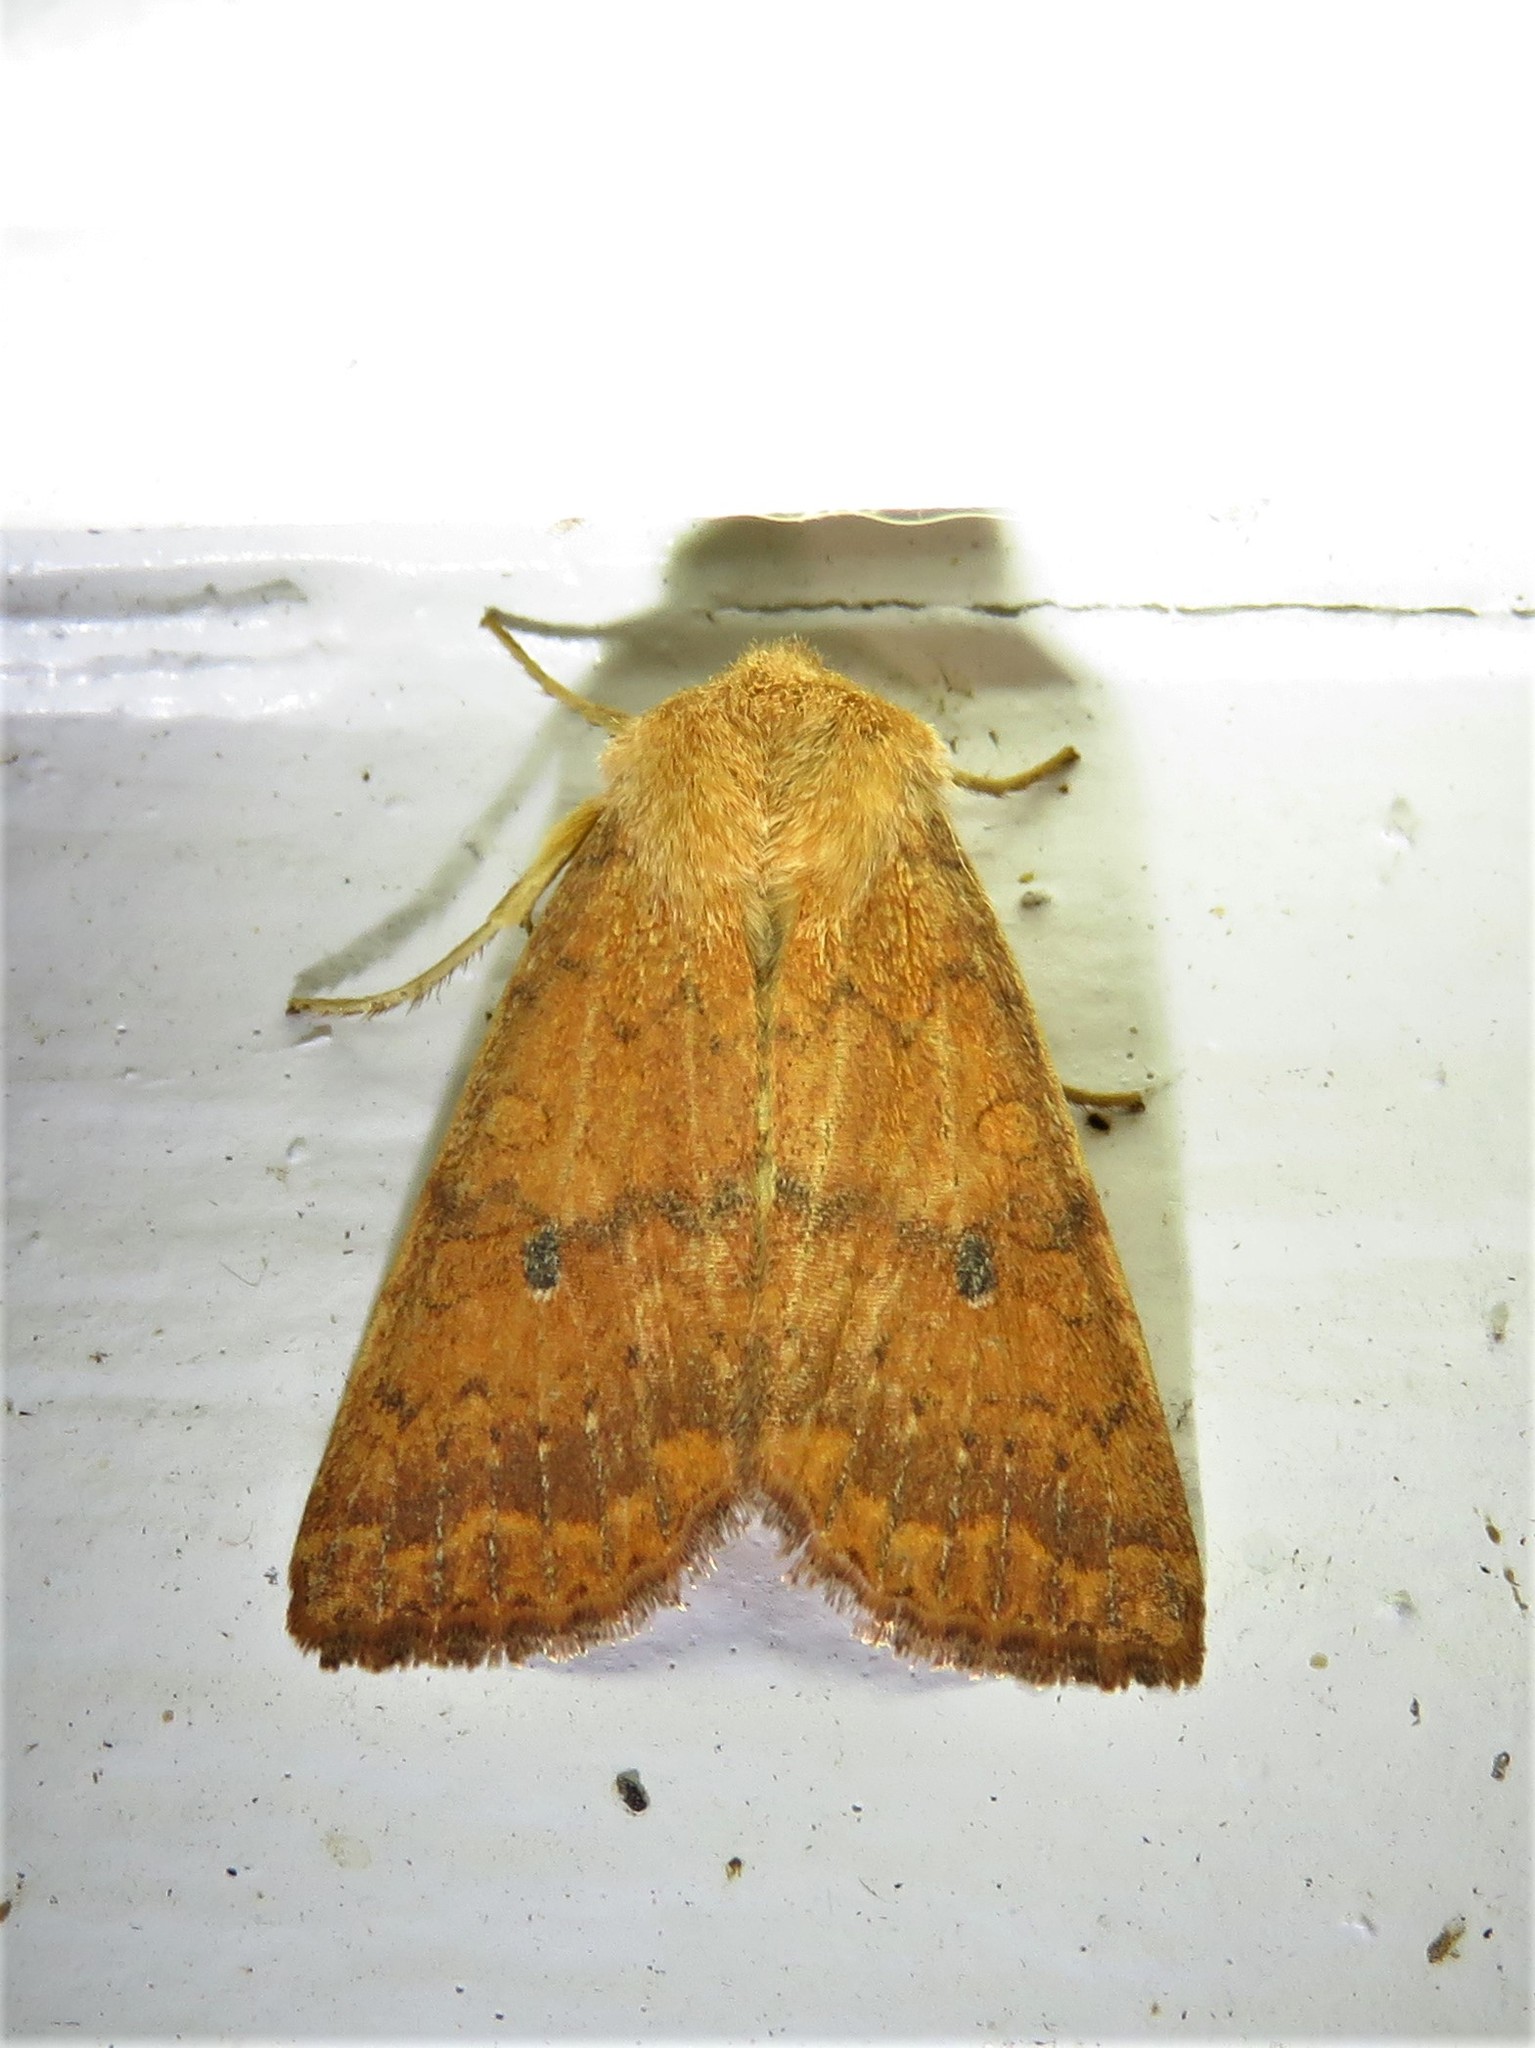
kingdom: Animalia
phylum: Arthropoda
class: Insecta
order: Lepidoptera
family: Noctuidae
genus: Agrochola
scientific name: Agrochola bicolorago
